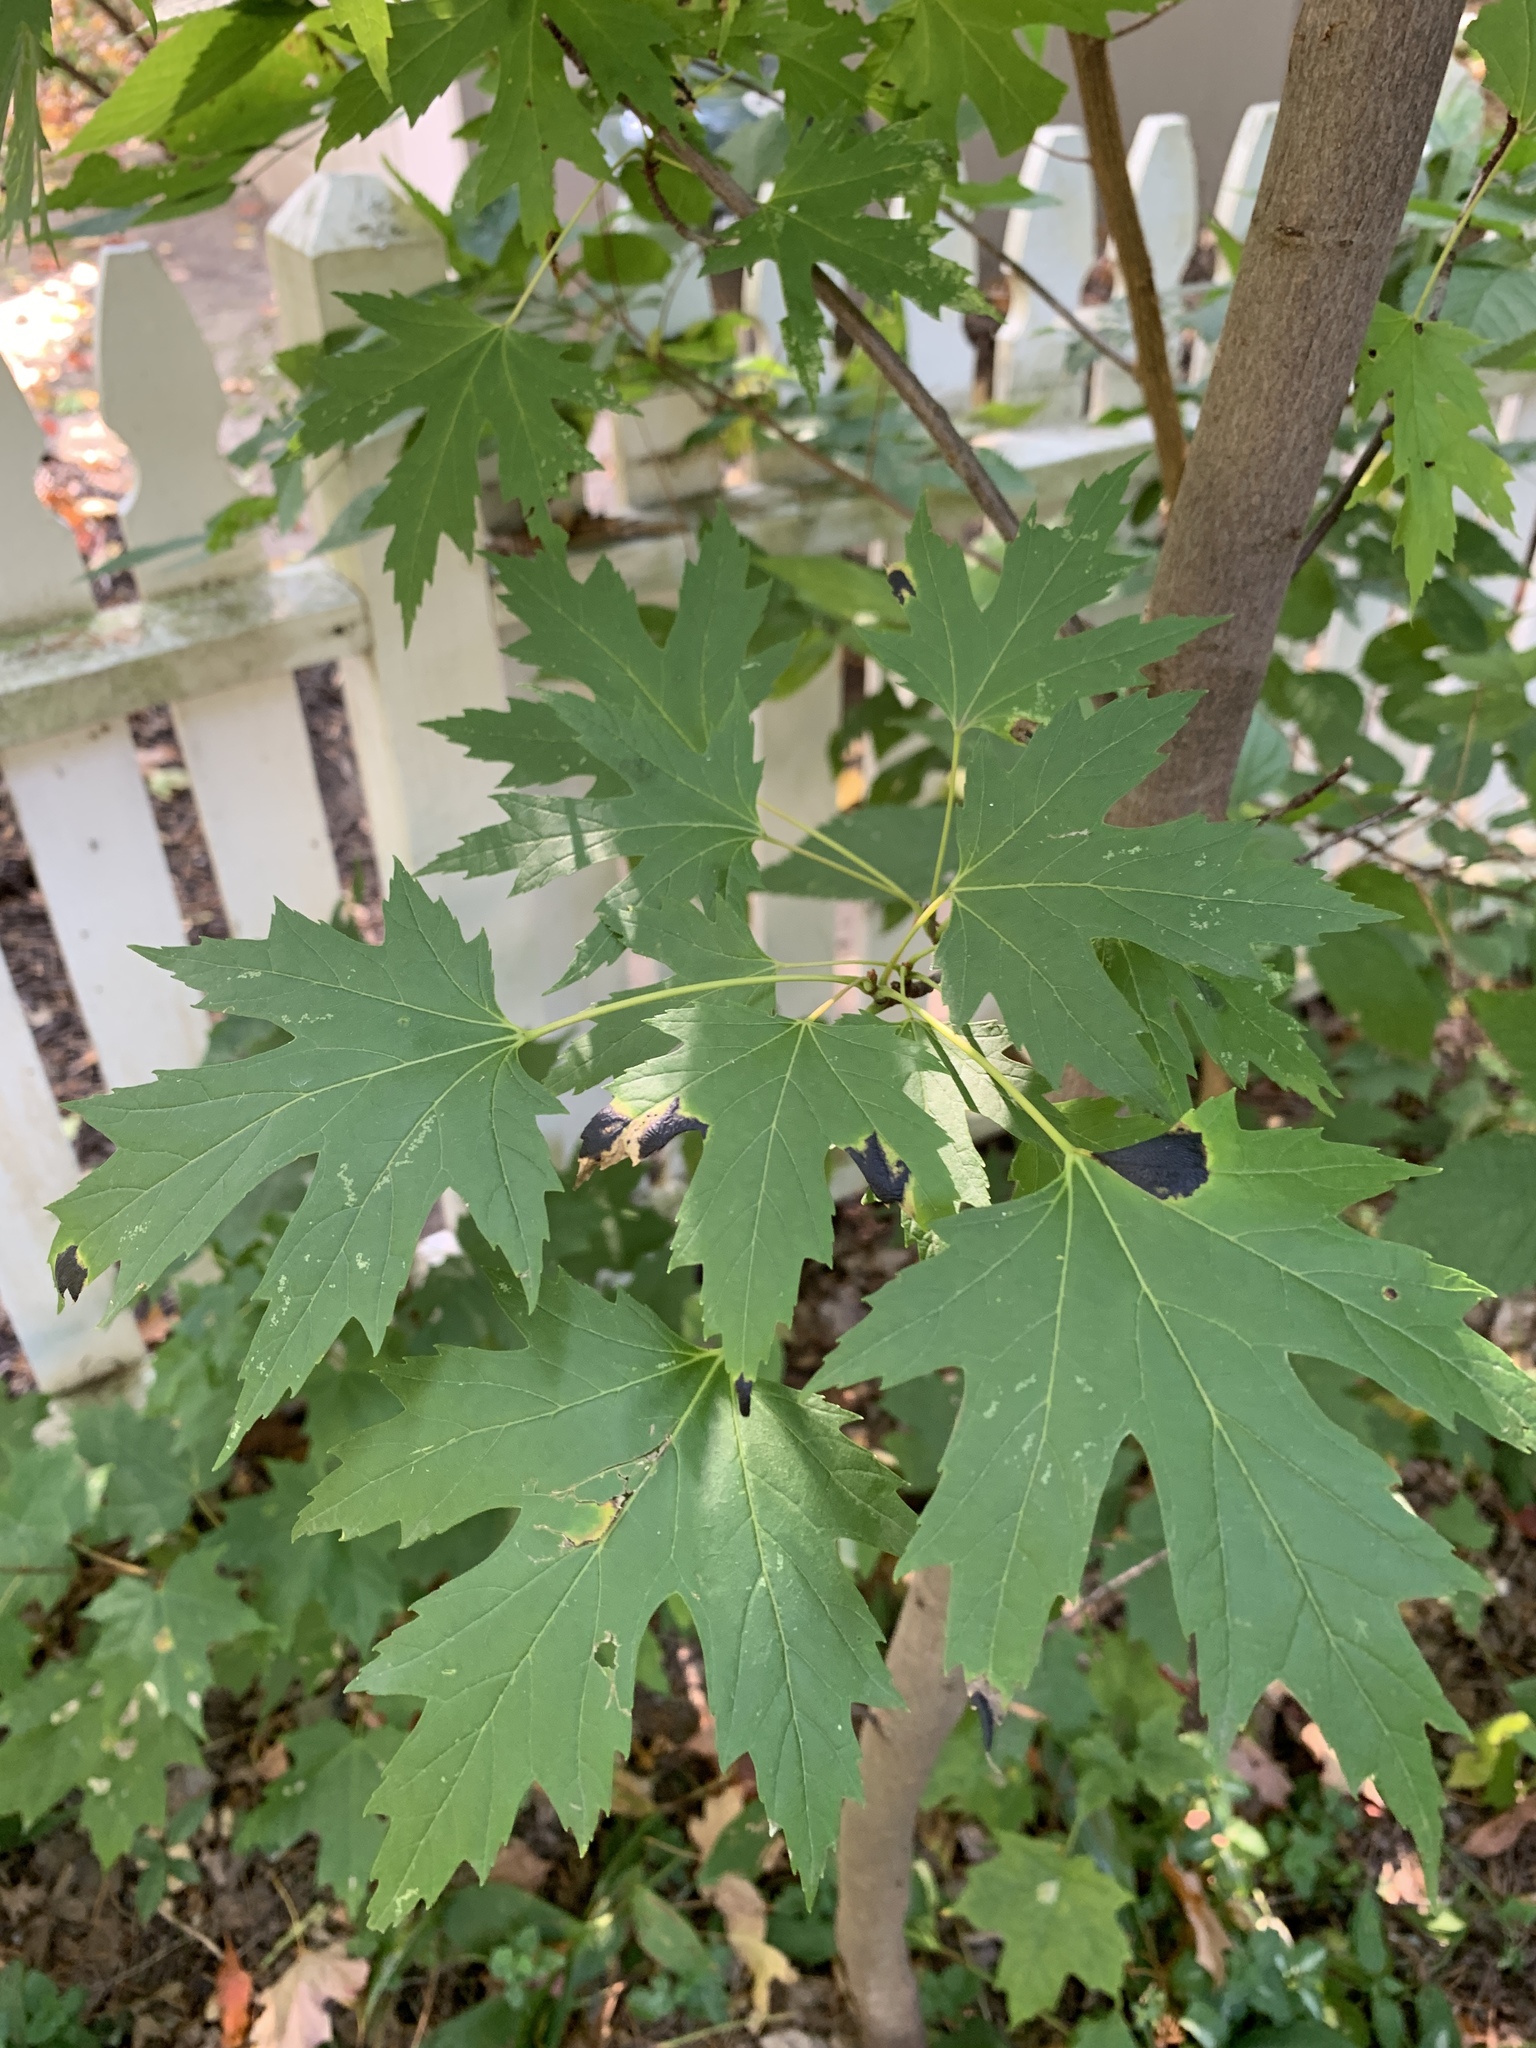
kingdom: Plantae
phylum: Tracheophyta
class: Magnoliopsida
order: Sapindales
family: Sapindaceae
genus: Acer
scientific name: Acer saccharinum
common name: Silver maple
